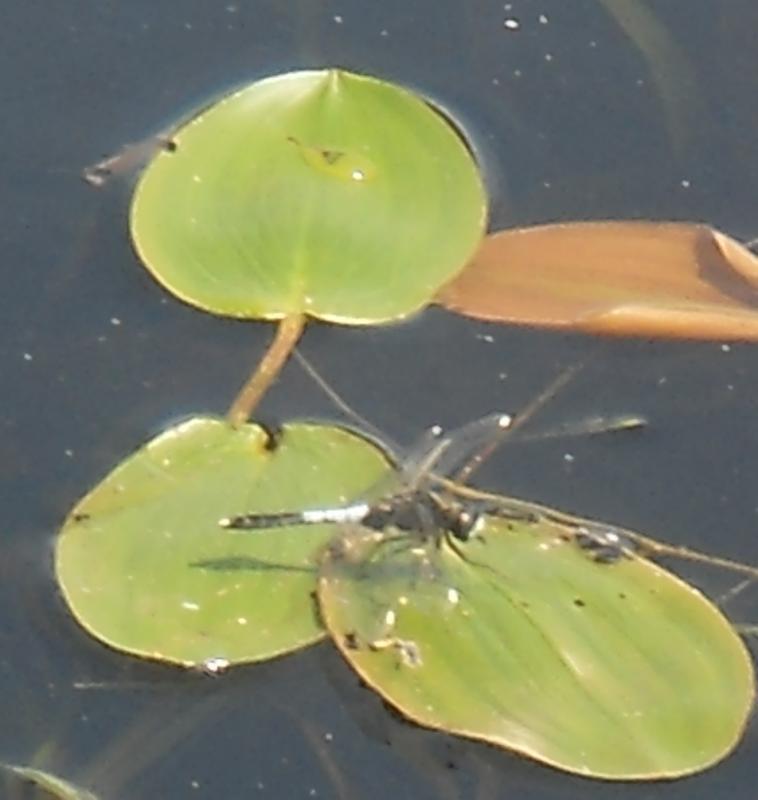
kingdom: Animalia
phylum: Arthropoda
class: Insecta
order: Odonata
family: Libellulidae
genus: Leucorrhinia
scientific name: Leucorrhinia caudalis
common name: Lilypad whiteface
